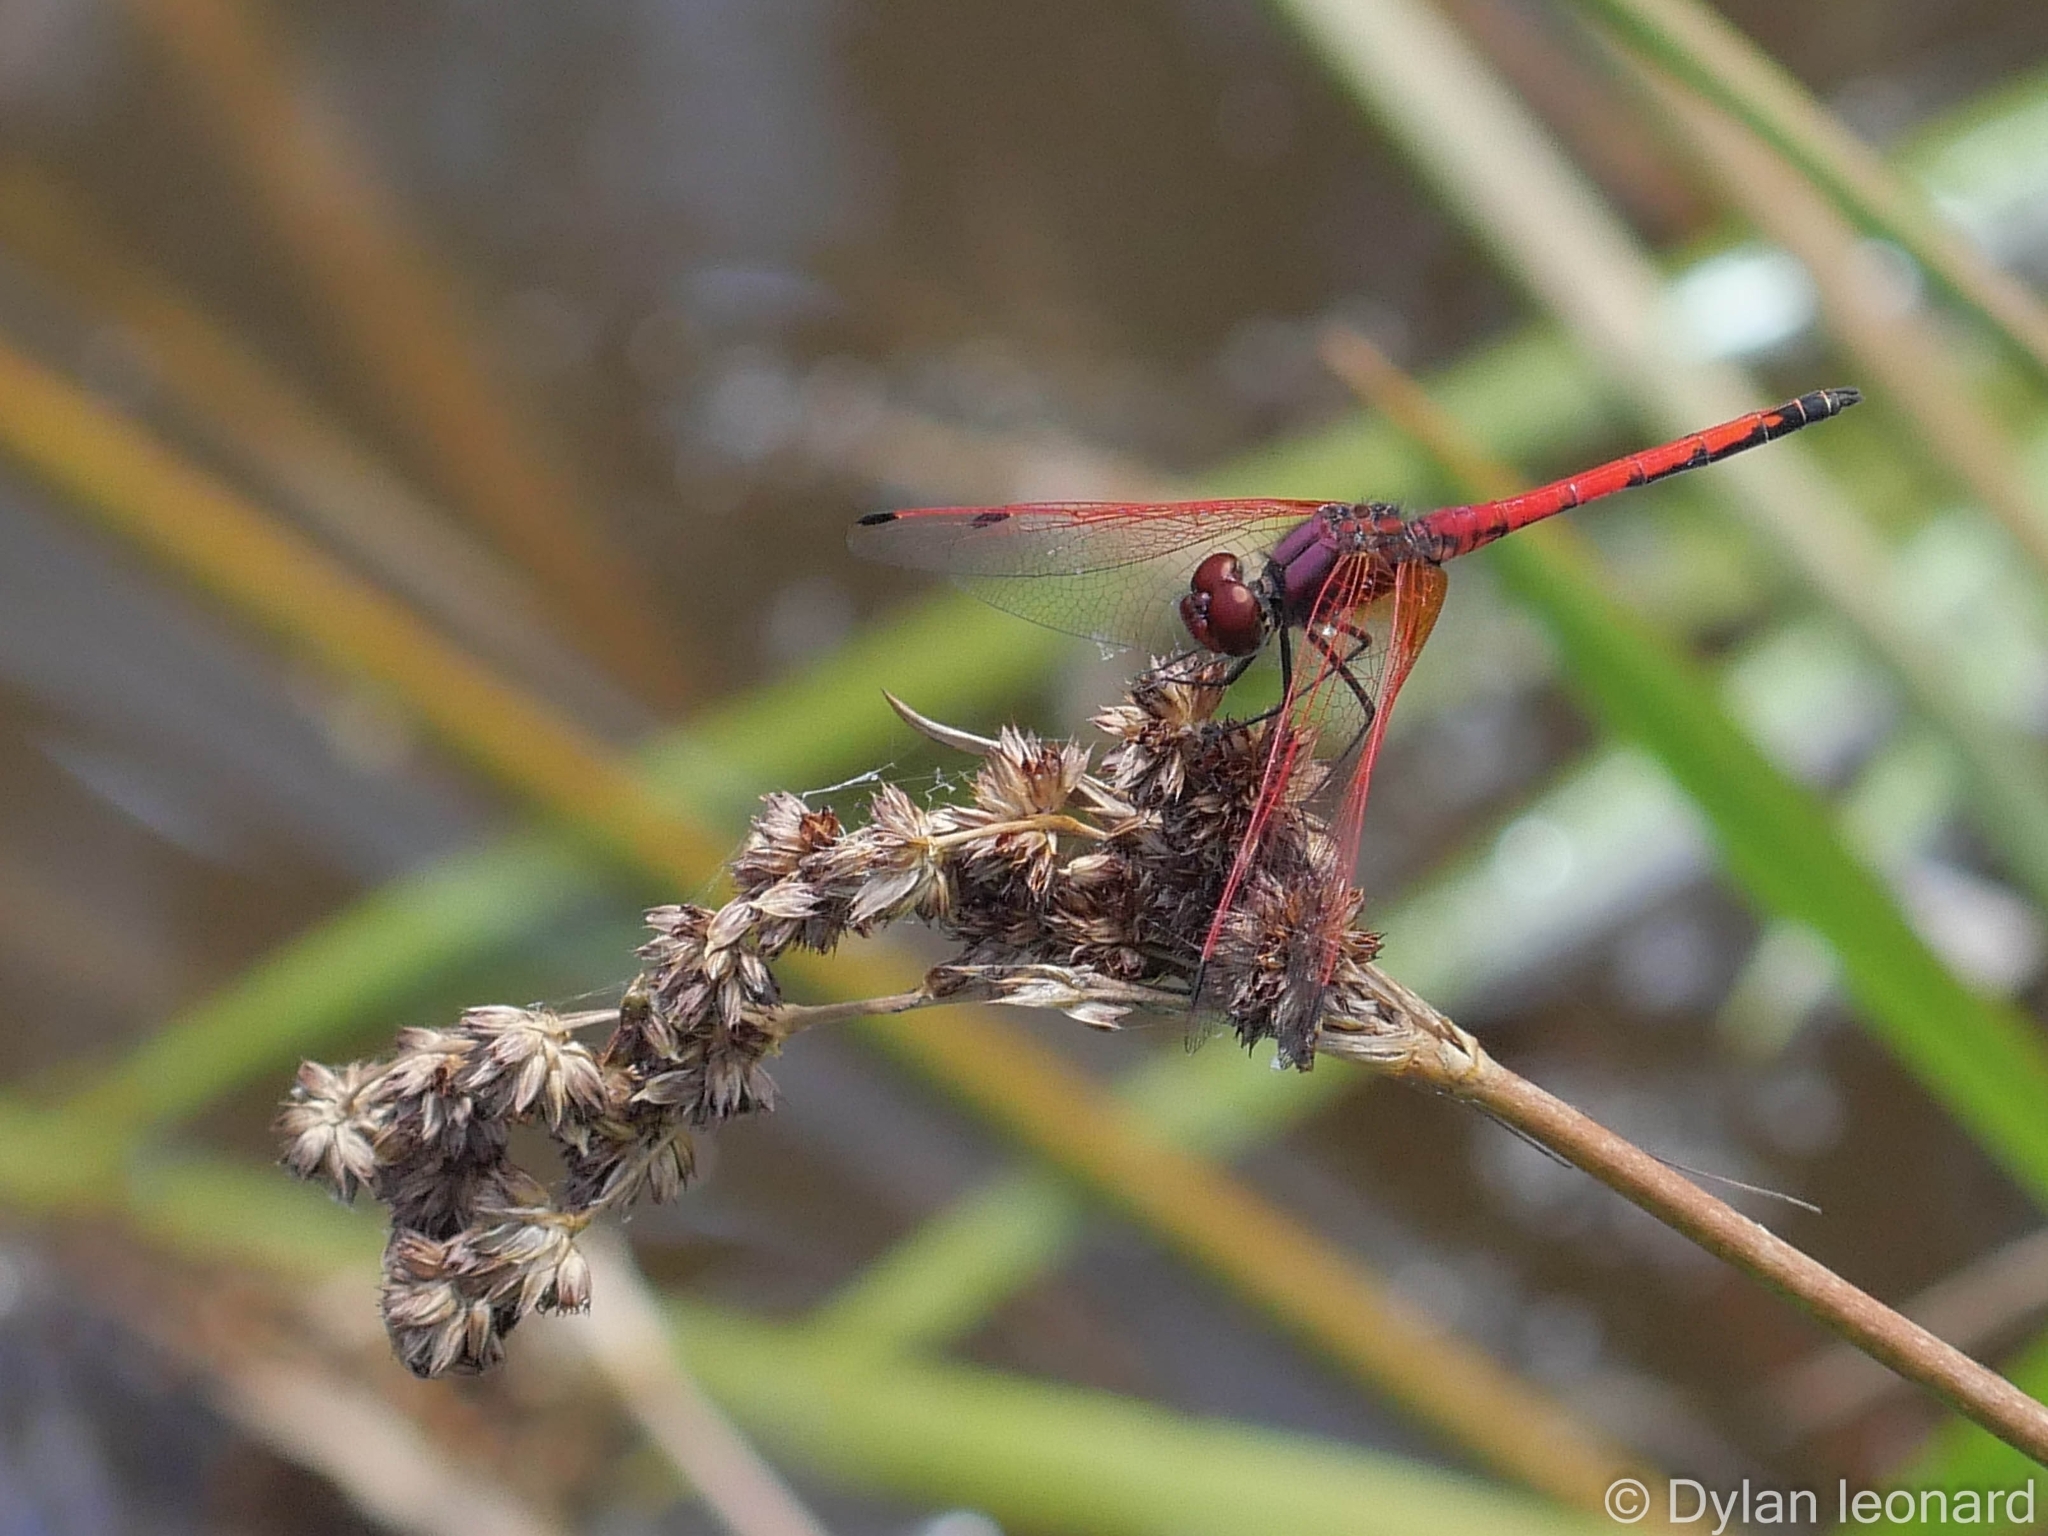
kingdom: Animalia
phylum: Arthropoda
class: Insecta
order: Odonata
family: Libellulidae
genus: Trithemis
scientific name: Trithemis arteriosa
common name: Red-veined dropwing
